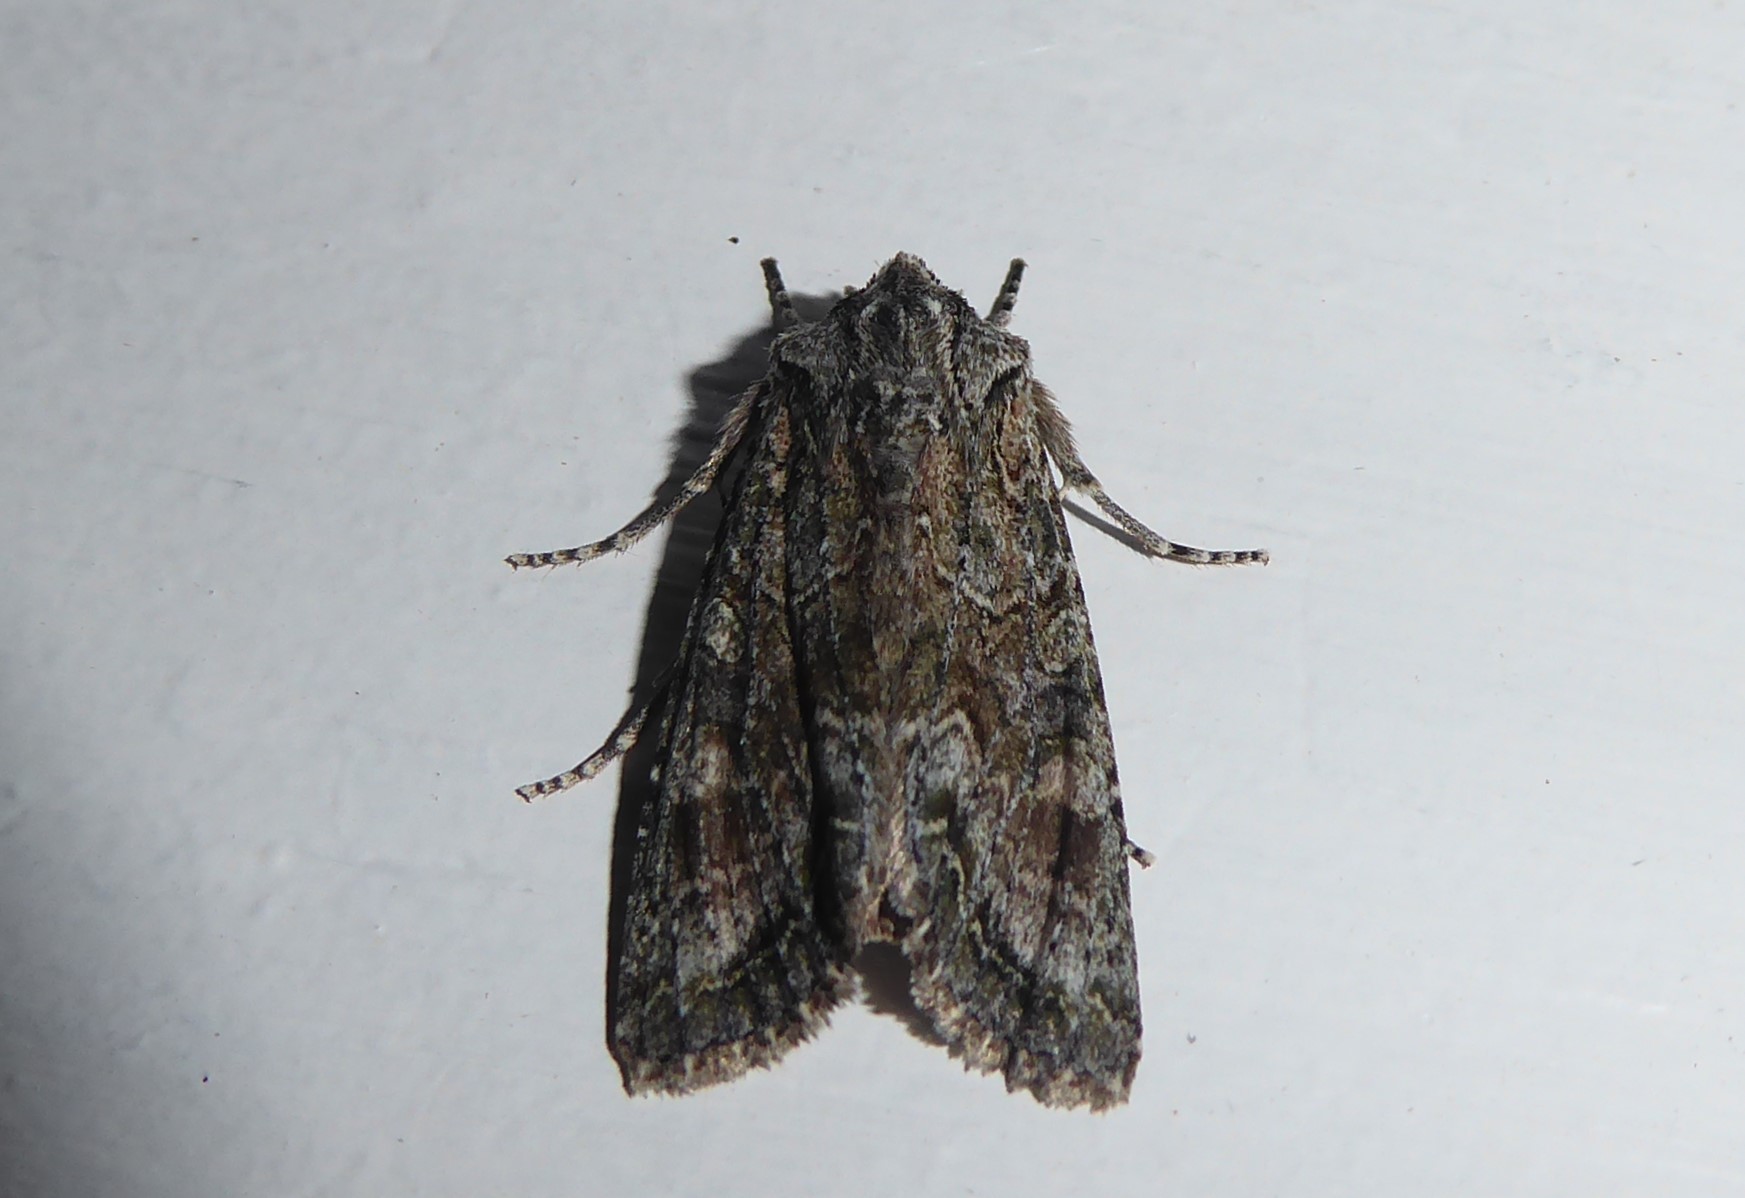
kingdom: Animalia
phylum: Arthropoda
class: Insecta
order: Lepidoptera
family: Noctuidae
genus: Ichneutica
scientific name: Ichneutica mutans
